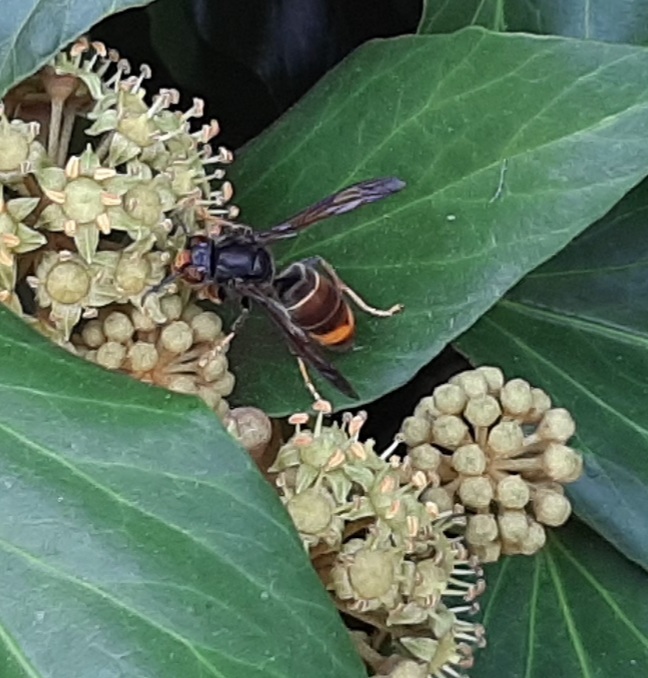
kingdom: Animalia
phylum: Arthropoda
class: Insecta
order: Hymenoptera
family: Vespidae
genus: Vespa
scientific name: Vespa velutina
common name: Asian hornet
